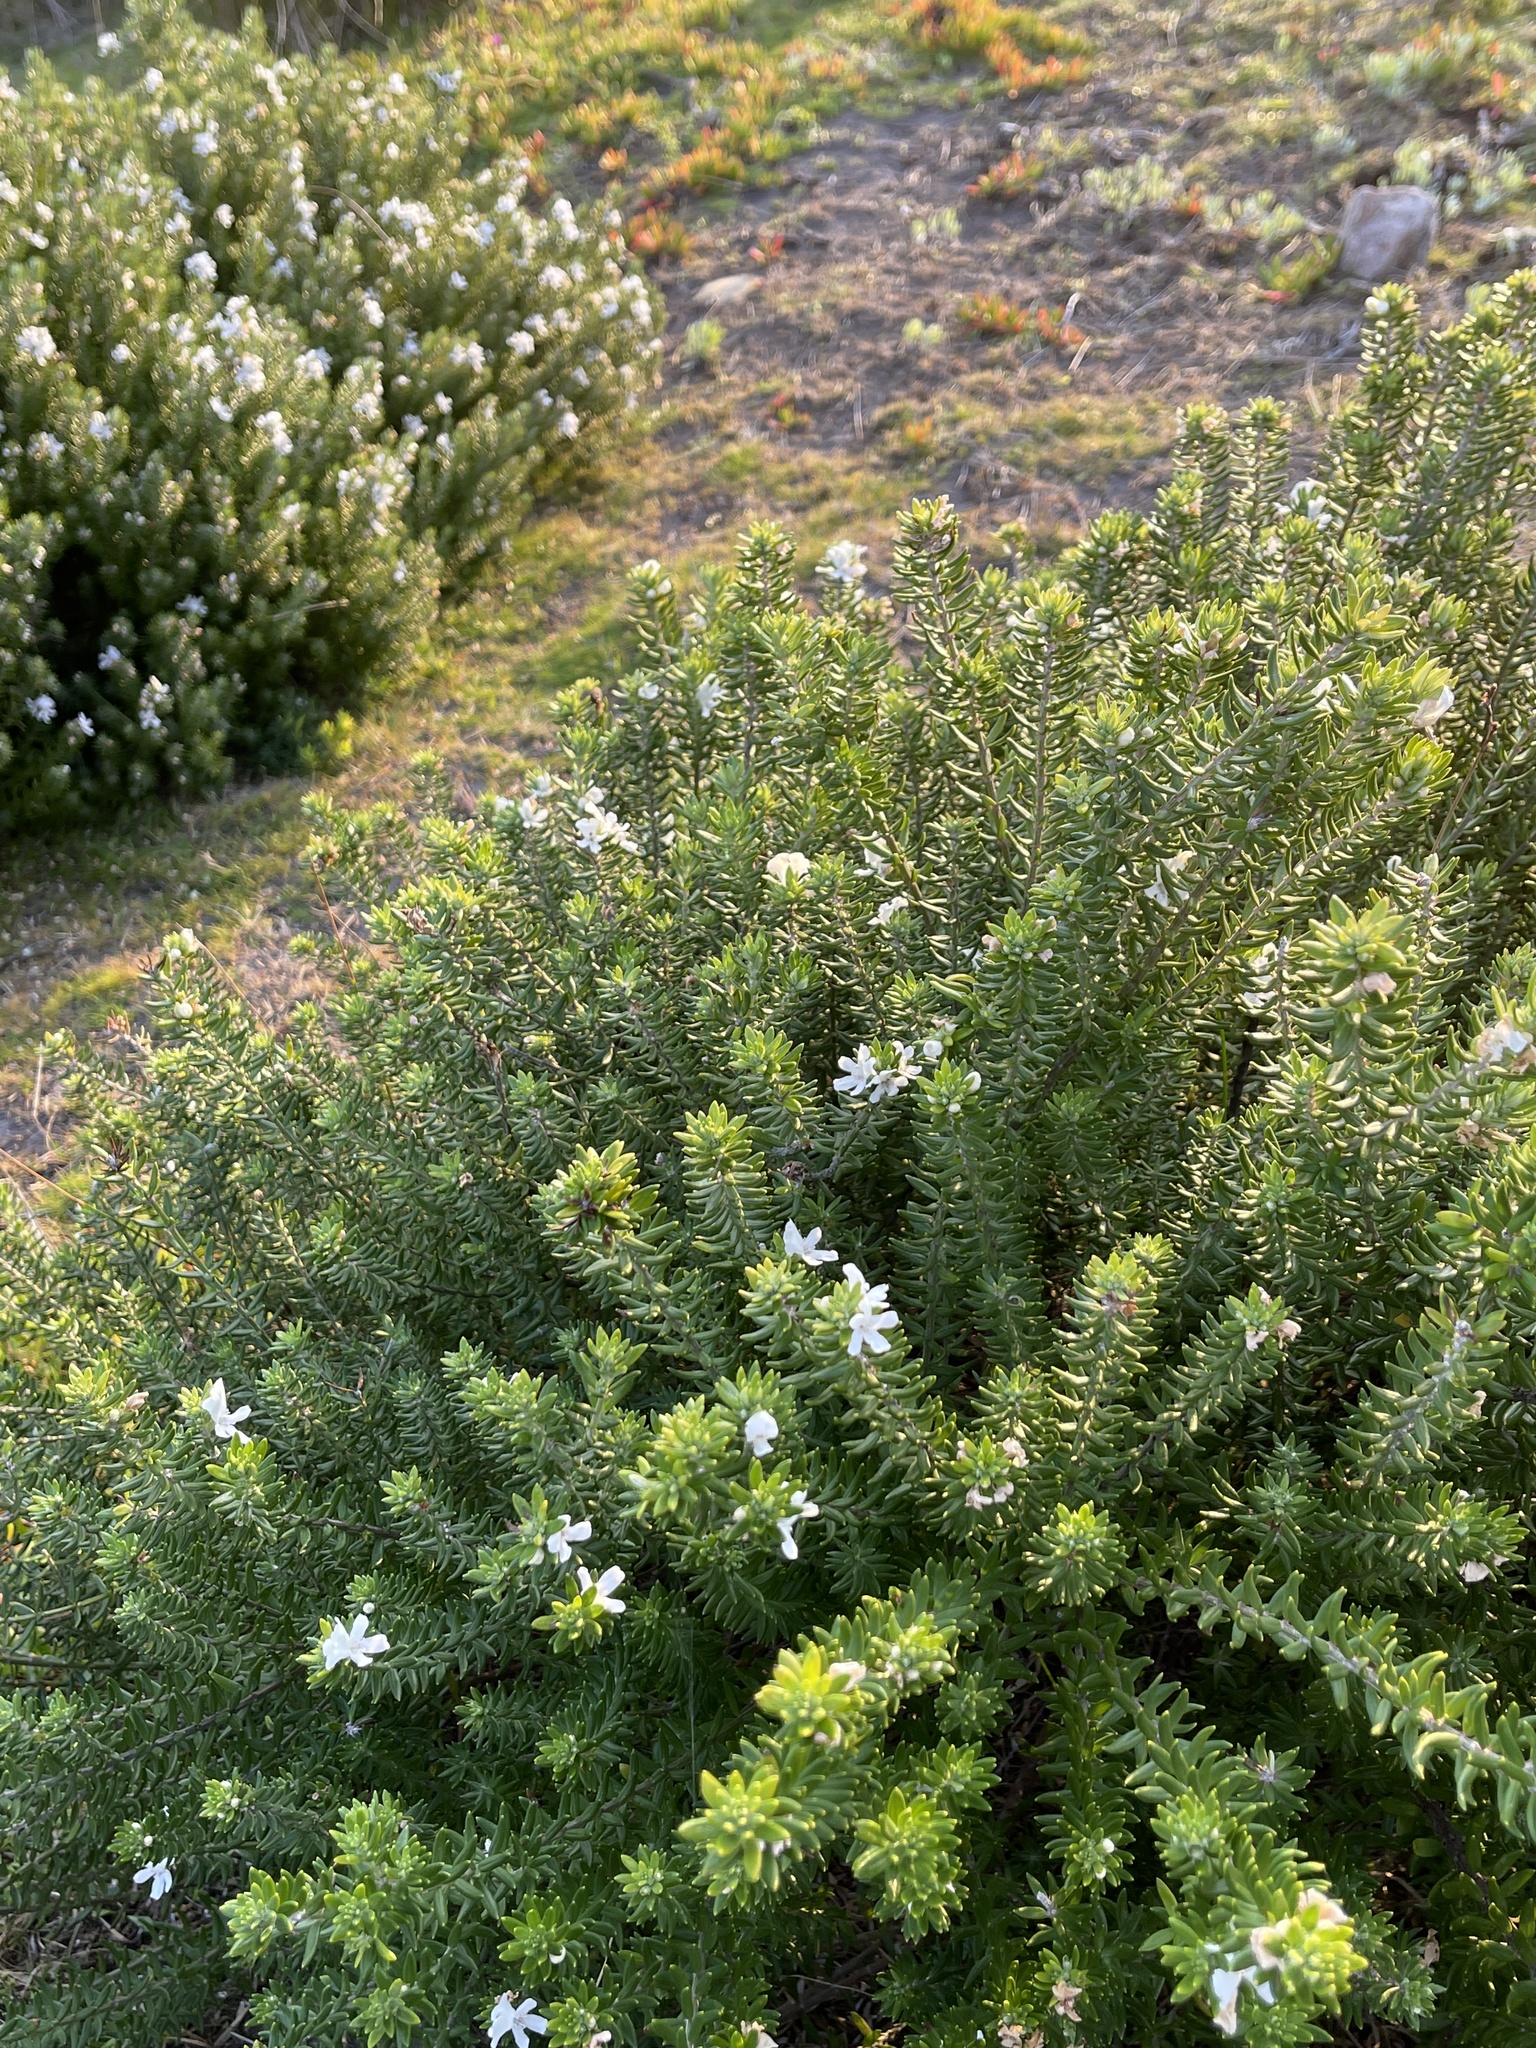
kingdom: Plantae
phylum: Tracheophyta
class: Magnoliopsida
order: Lamiales
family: Lamiaceae
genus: Westringia
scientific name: Westringia fruticosa
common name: Coastal-rosemary
